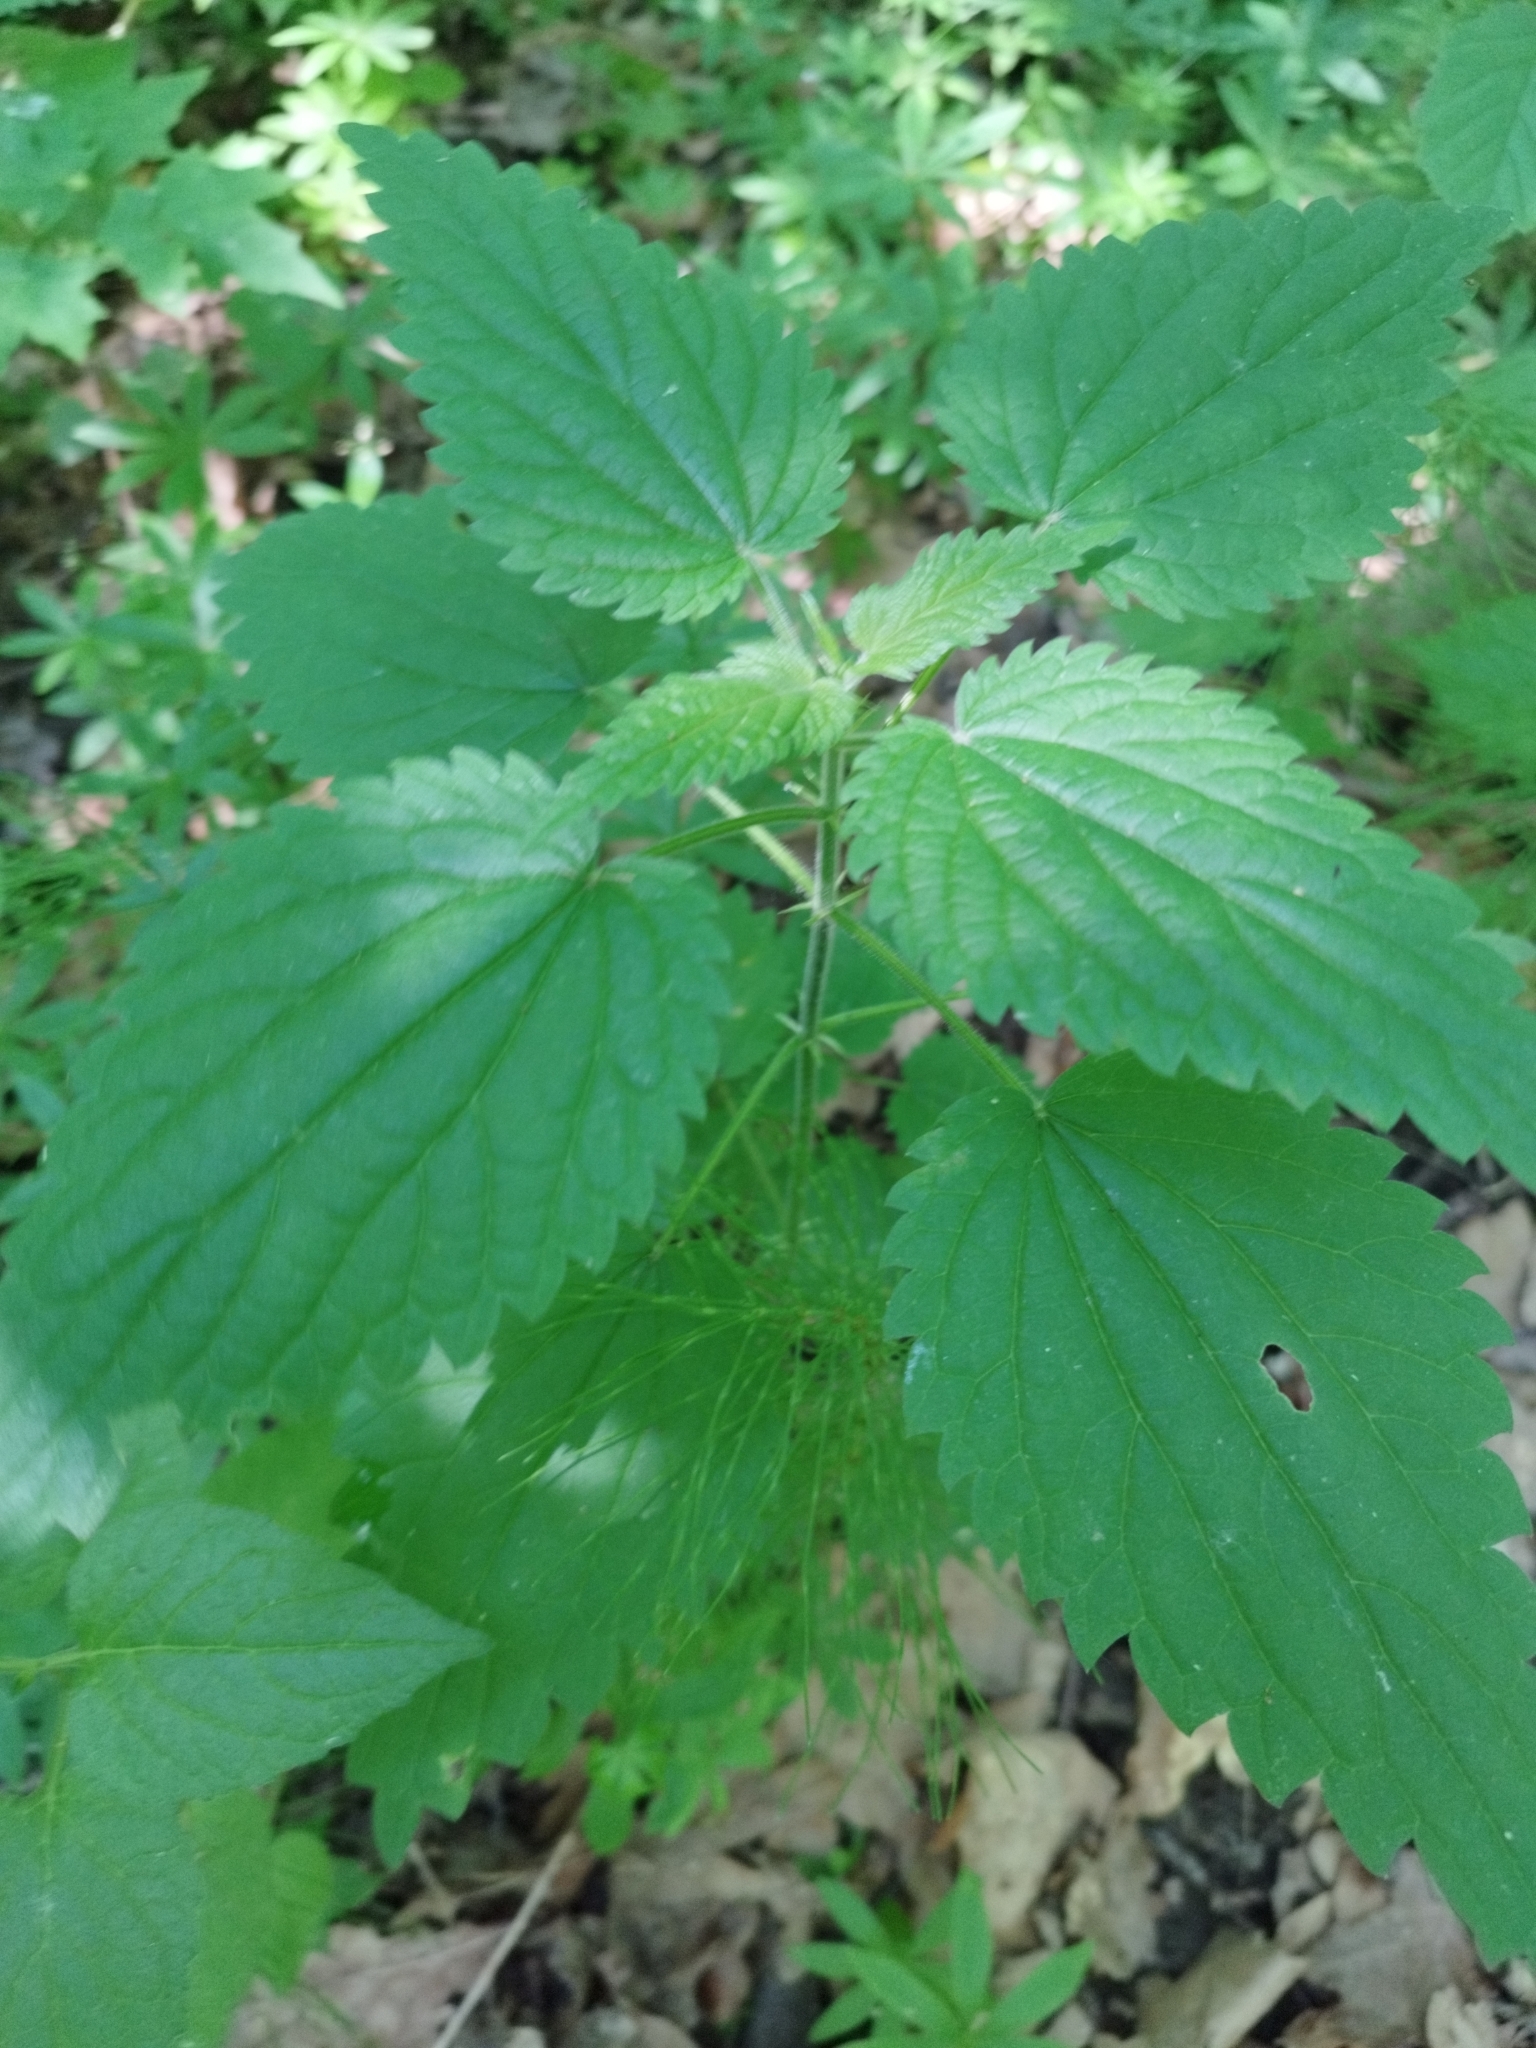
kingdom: Plantae
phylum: Tracheophyta
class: Magnoliopsida
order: Rosales
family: Urticaceae
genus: Urtica
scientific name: Urtica dioica
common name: Common nettle
